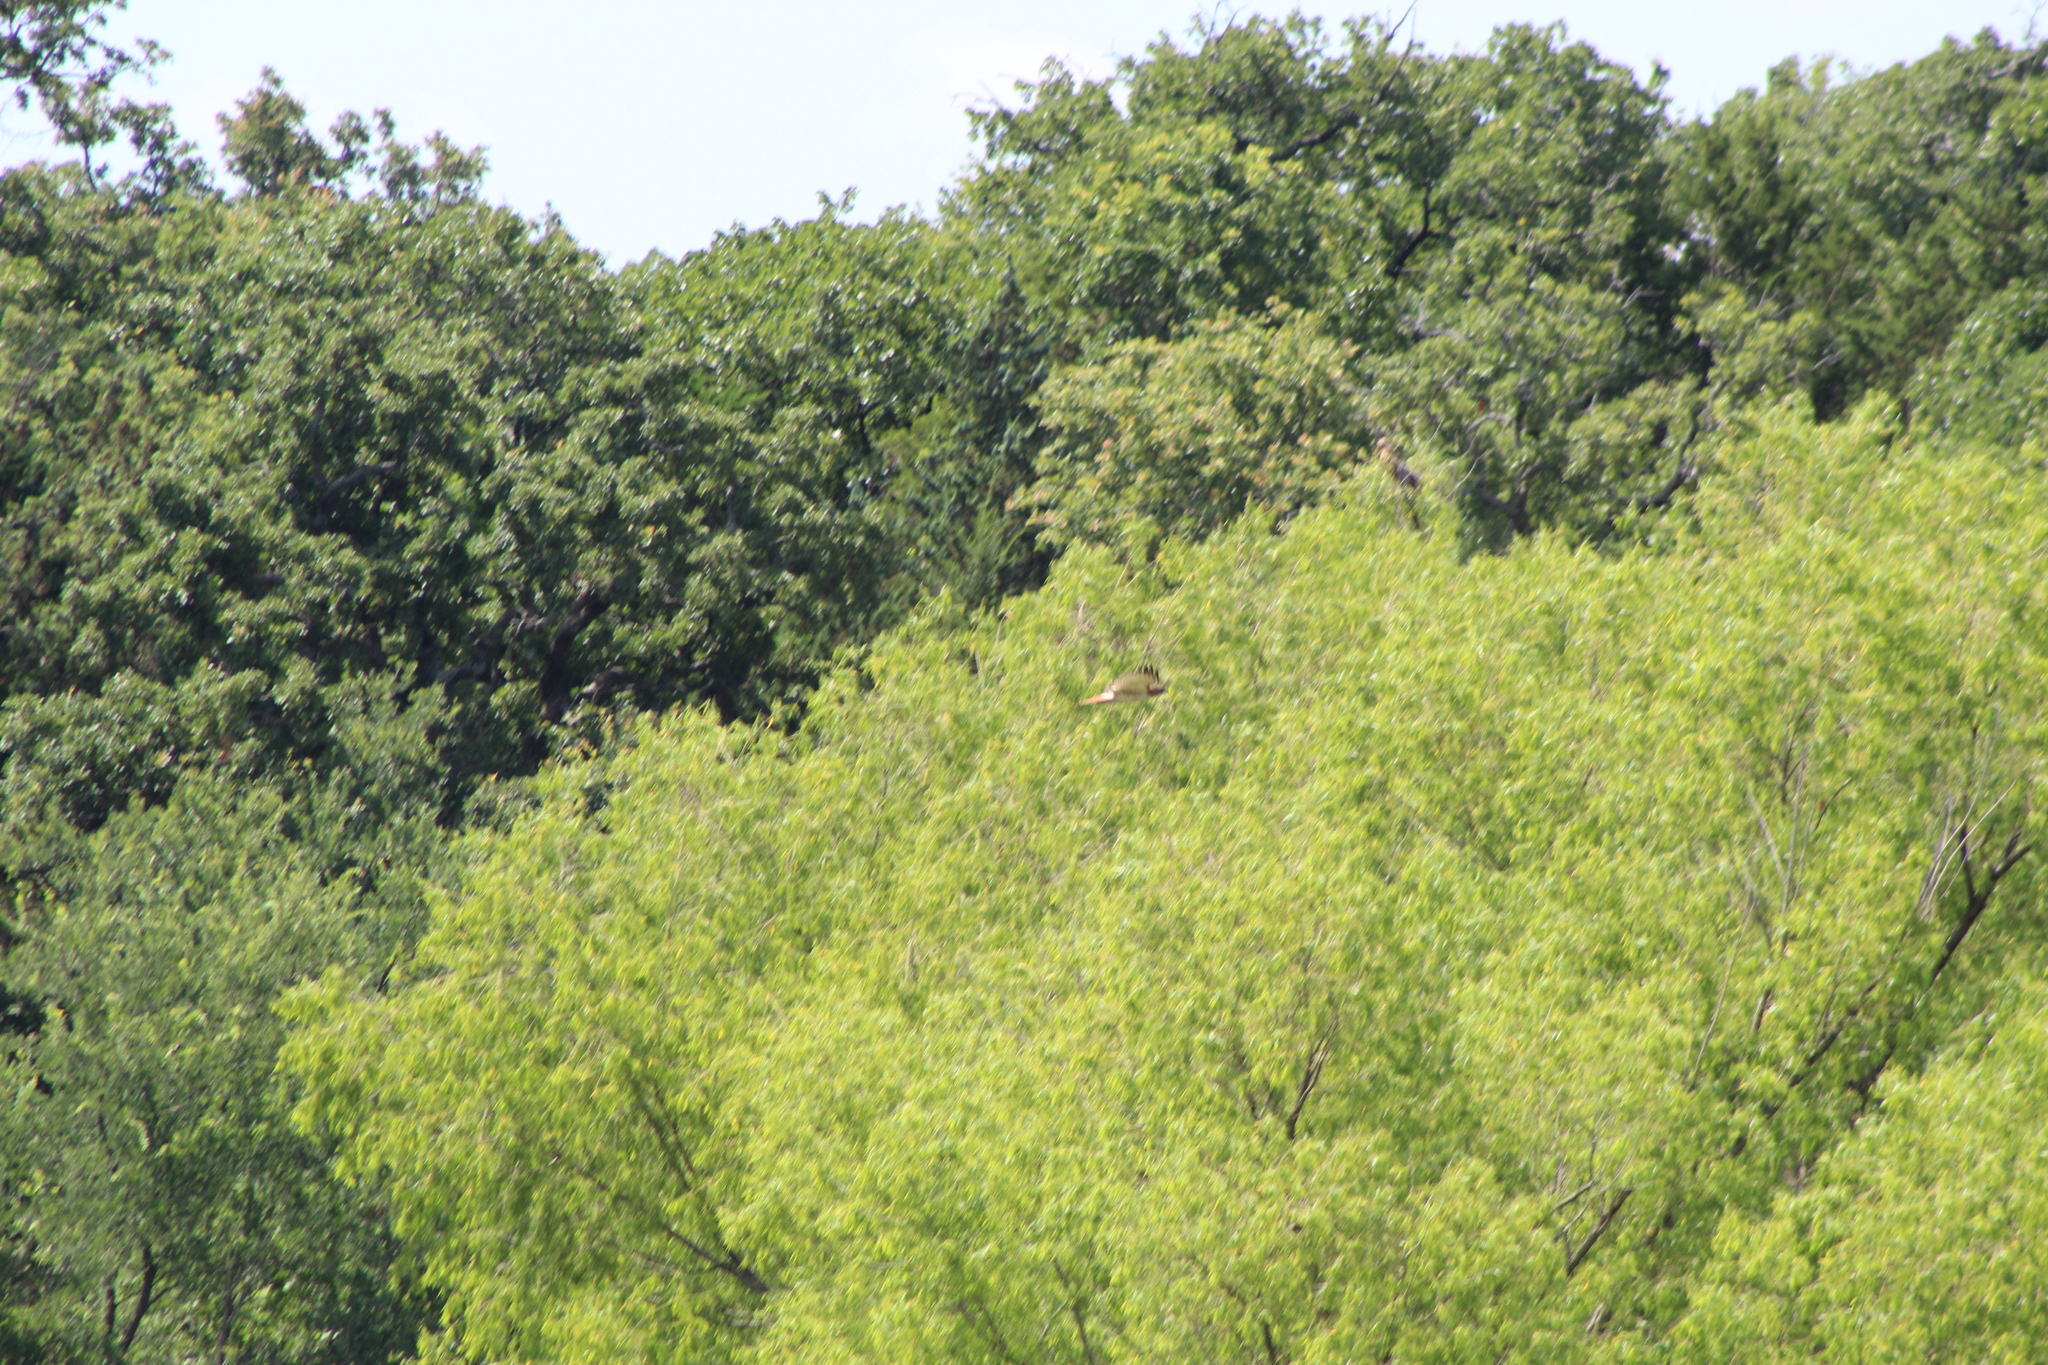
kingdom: Animalia
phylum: Chordata
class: Aves
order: Accipitriformes
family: Accipitridae
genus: Buteo
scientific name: Buteo jamaicensis
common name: Red-tailed hawk
